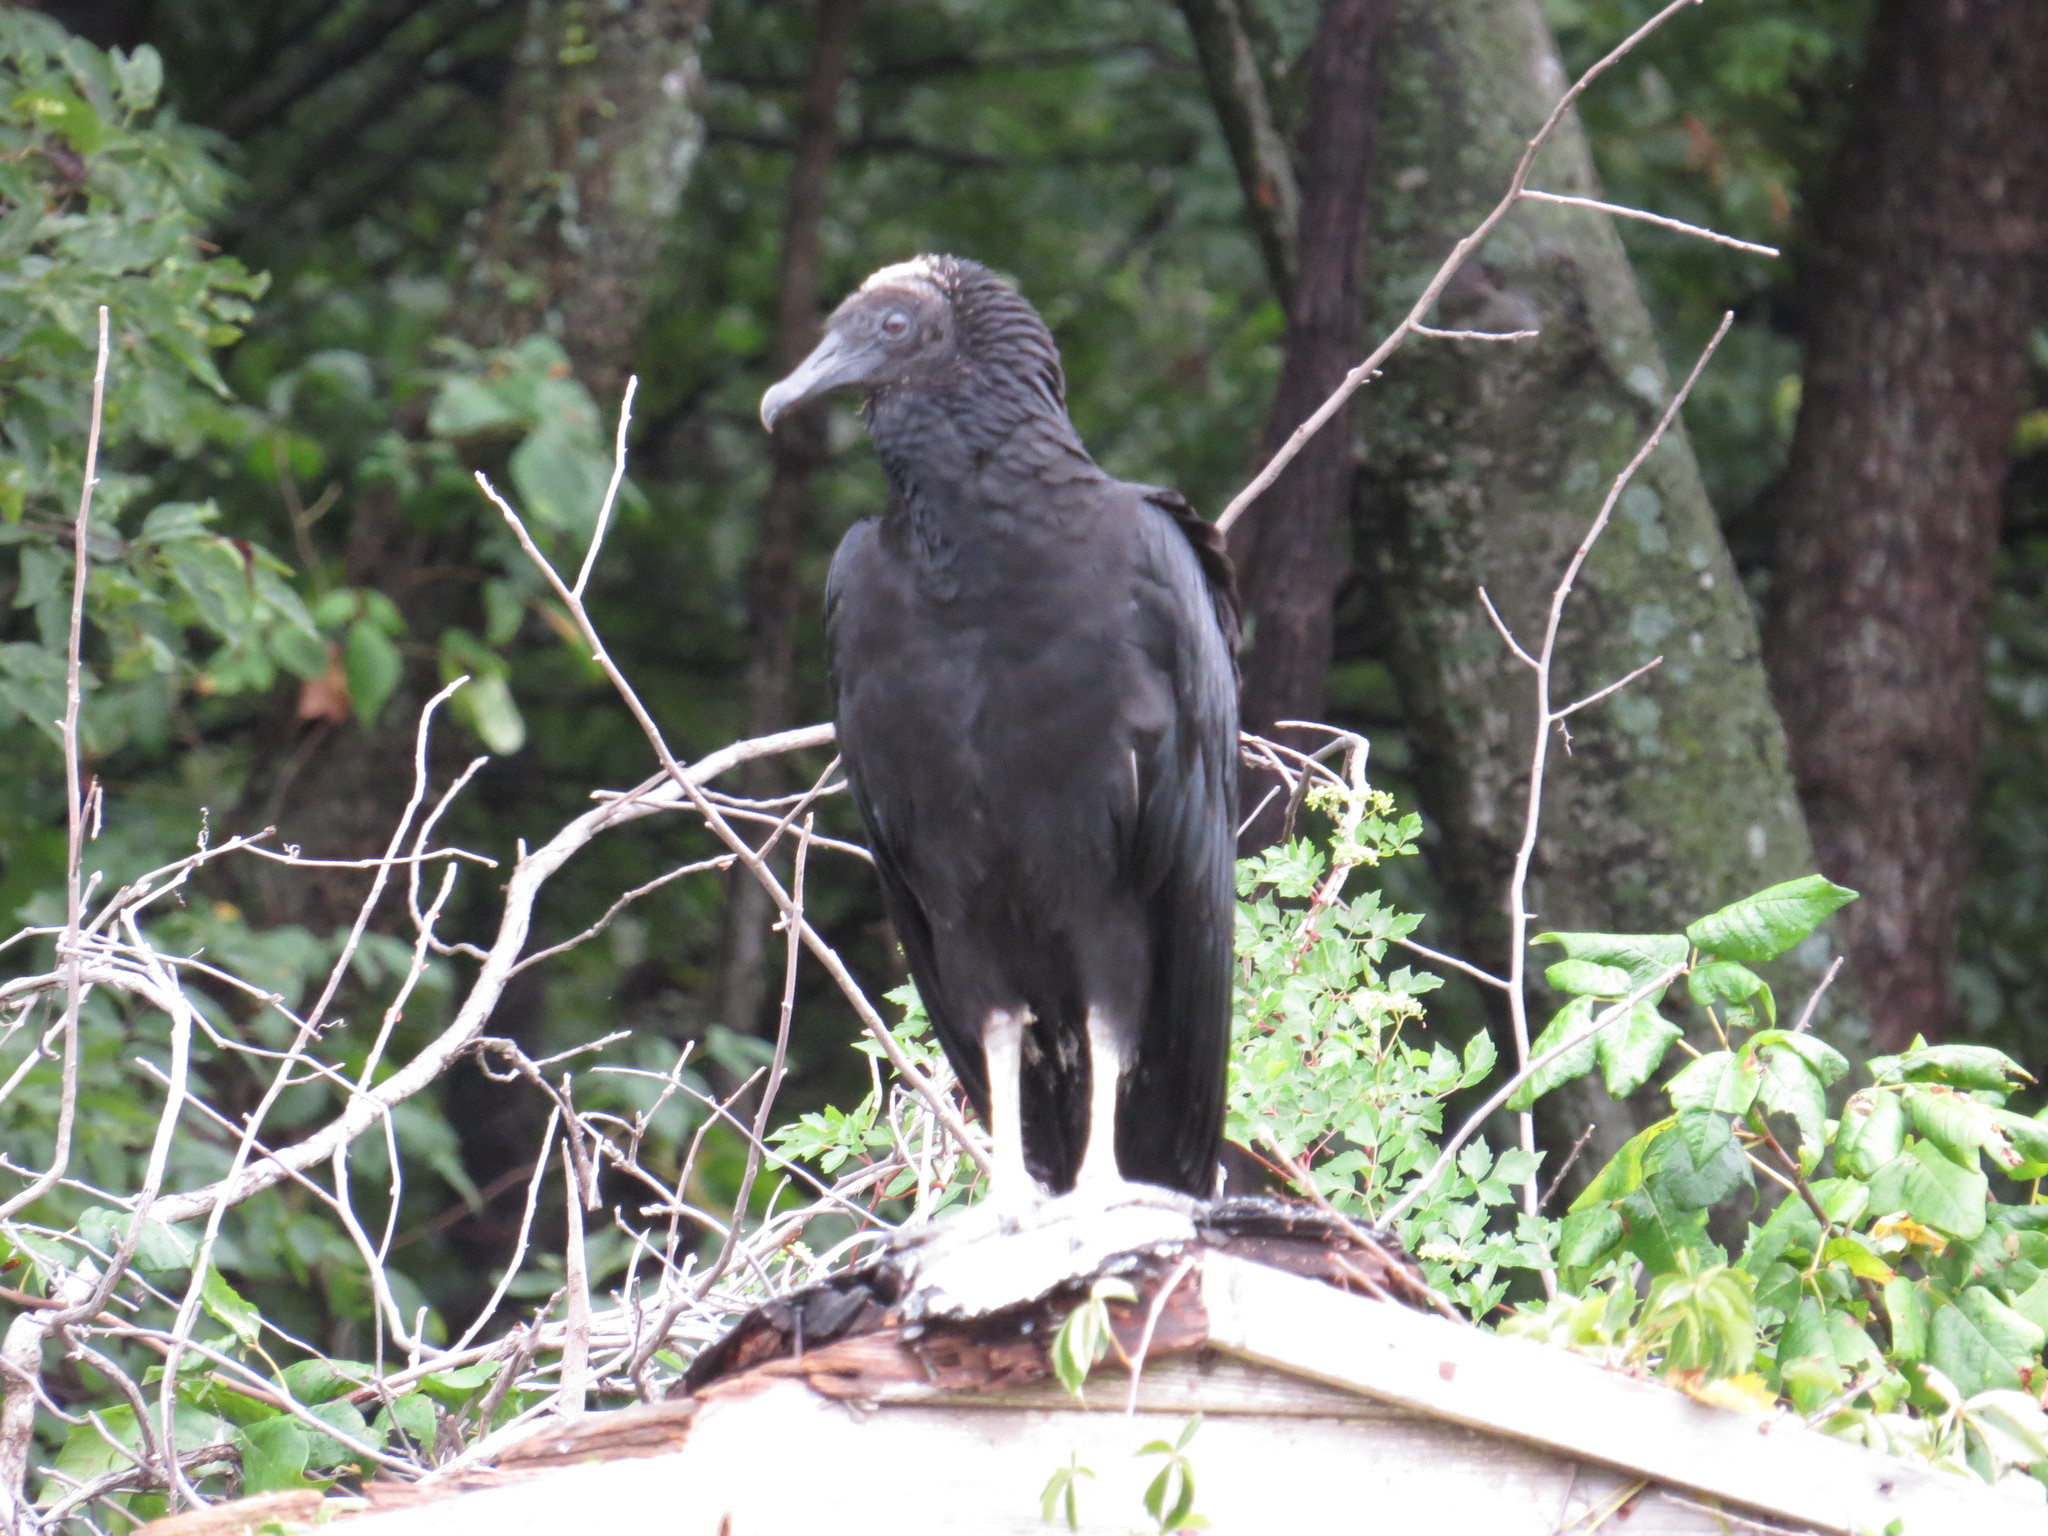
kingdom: Animalia
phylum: Chordata
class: Aves
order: Accipitriformes
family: Cathartidae
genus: Coragyps
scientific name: Coragyps atratus
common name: Black vulture
